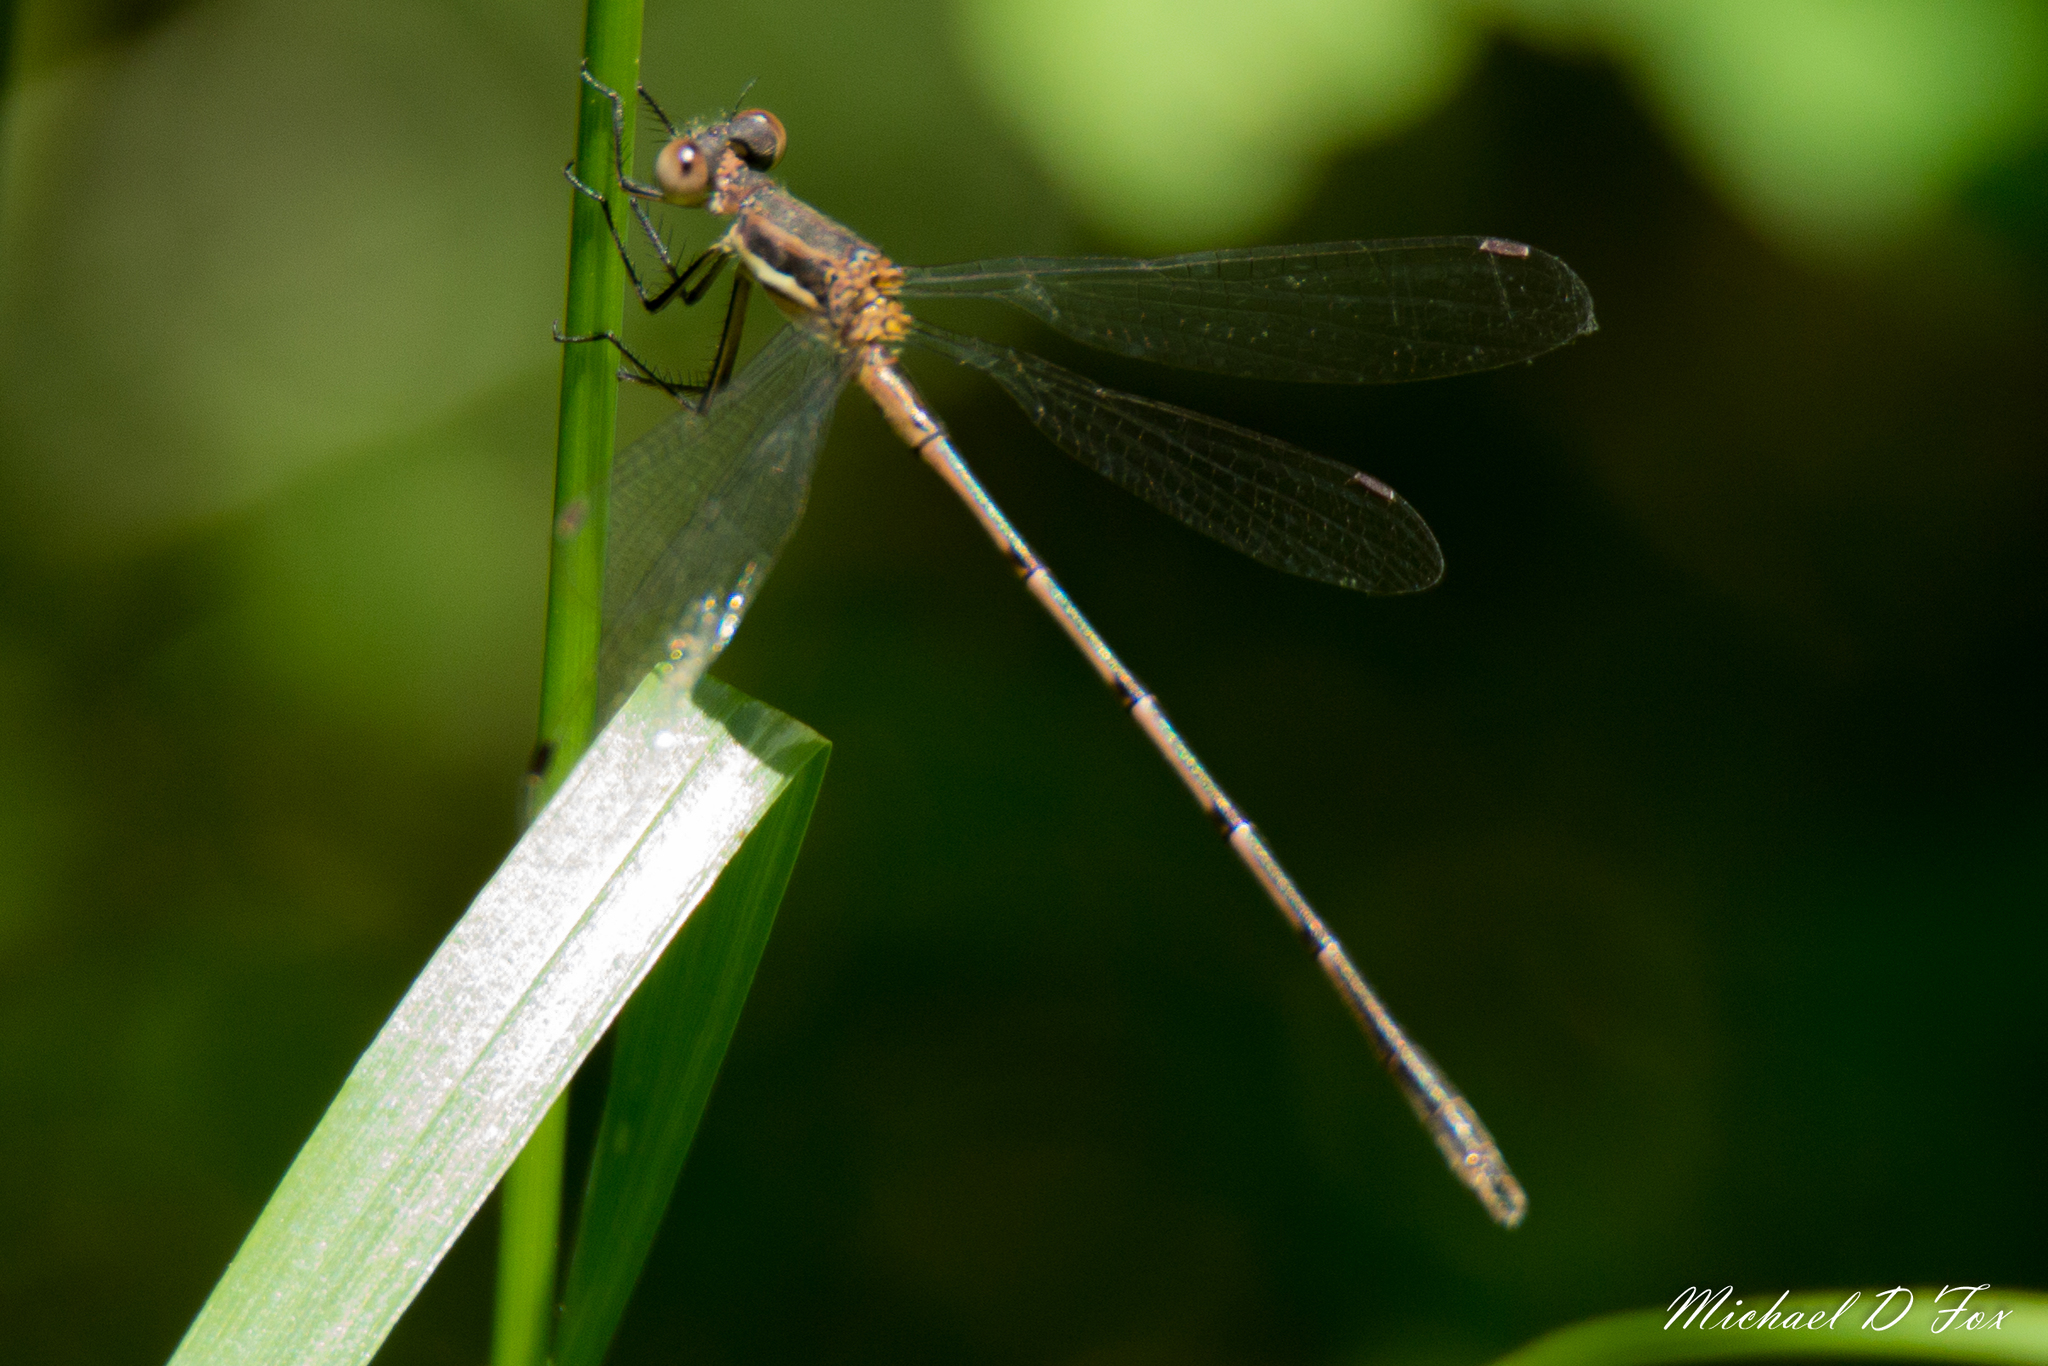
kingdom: Animalia
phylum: Arthropoda
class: Insecta
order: Odonata
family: Lestidae
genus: Lestes
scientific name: Lestes australis
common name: Southern spreadwing
